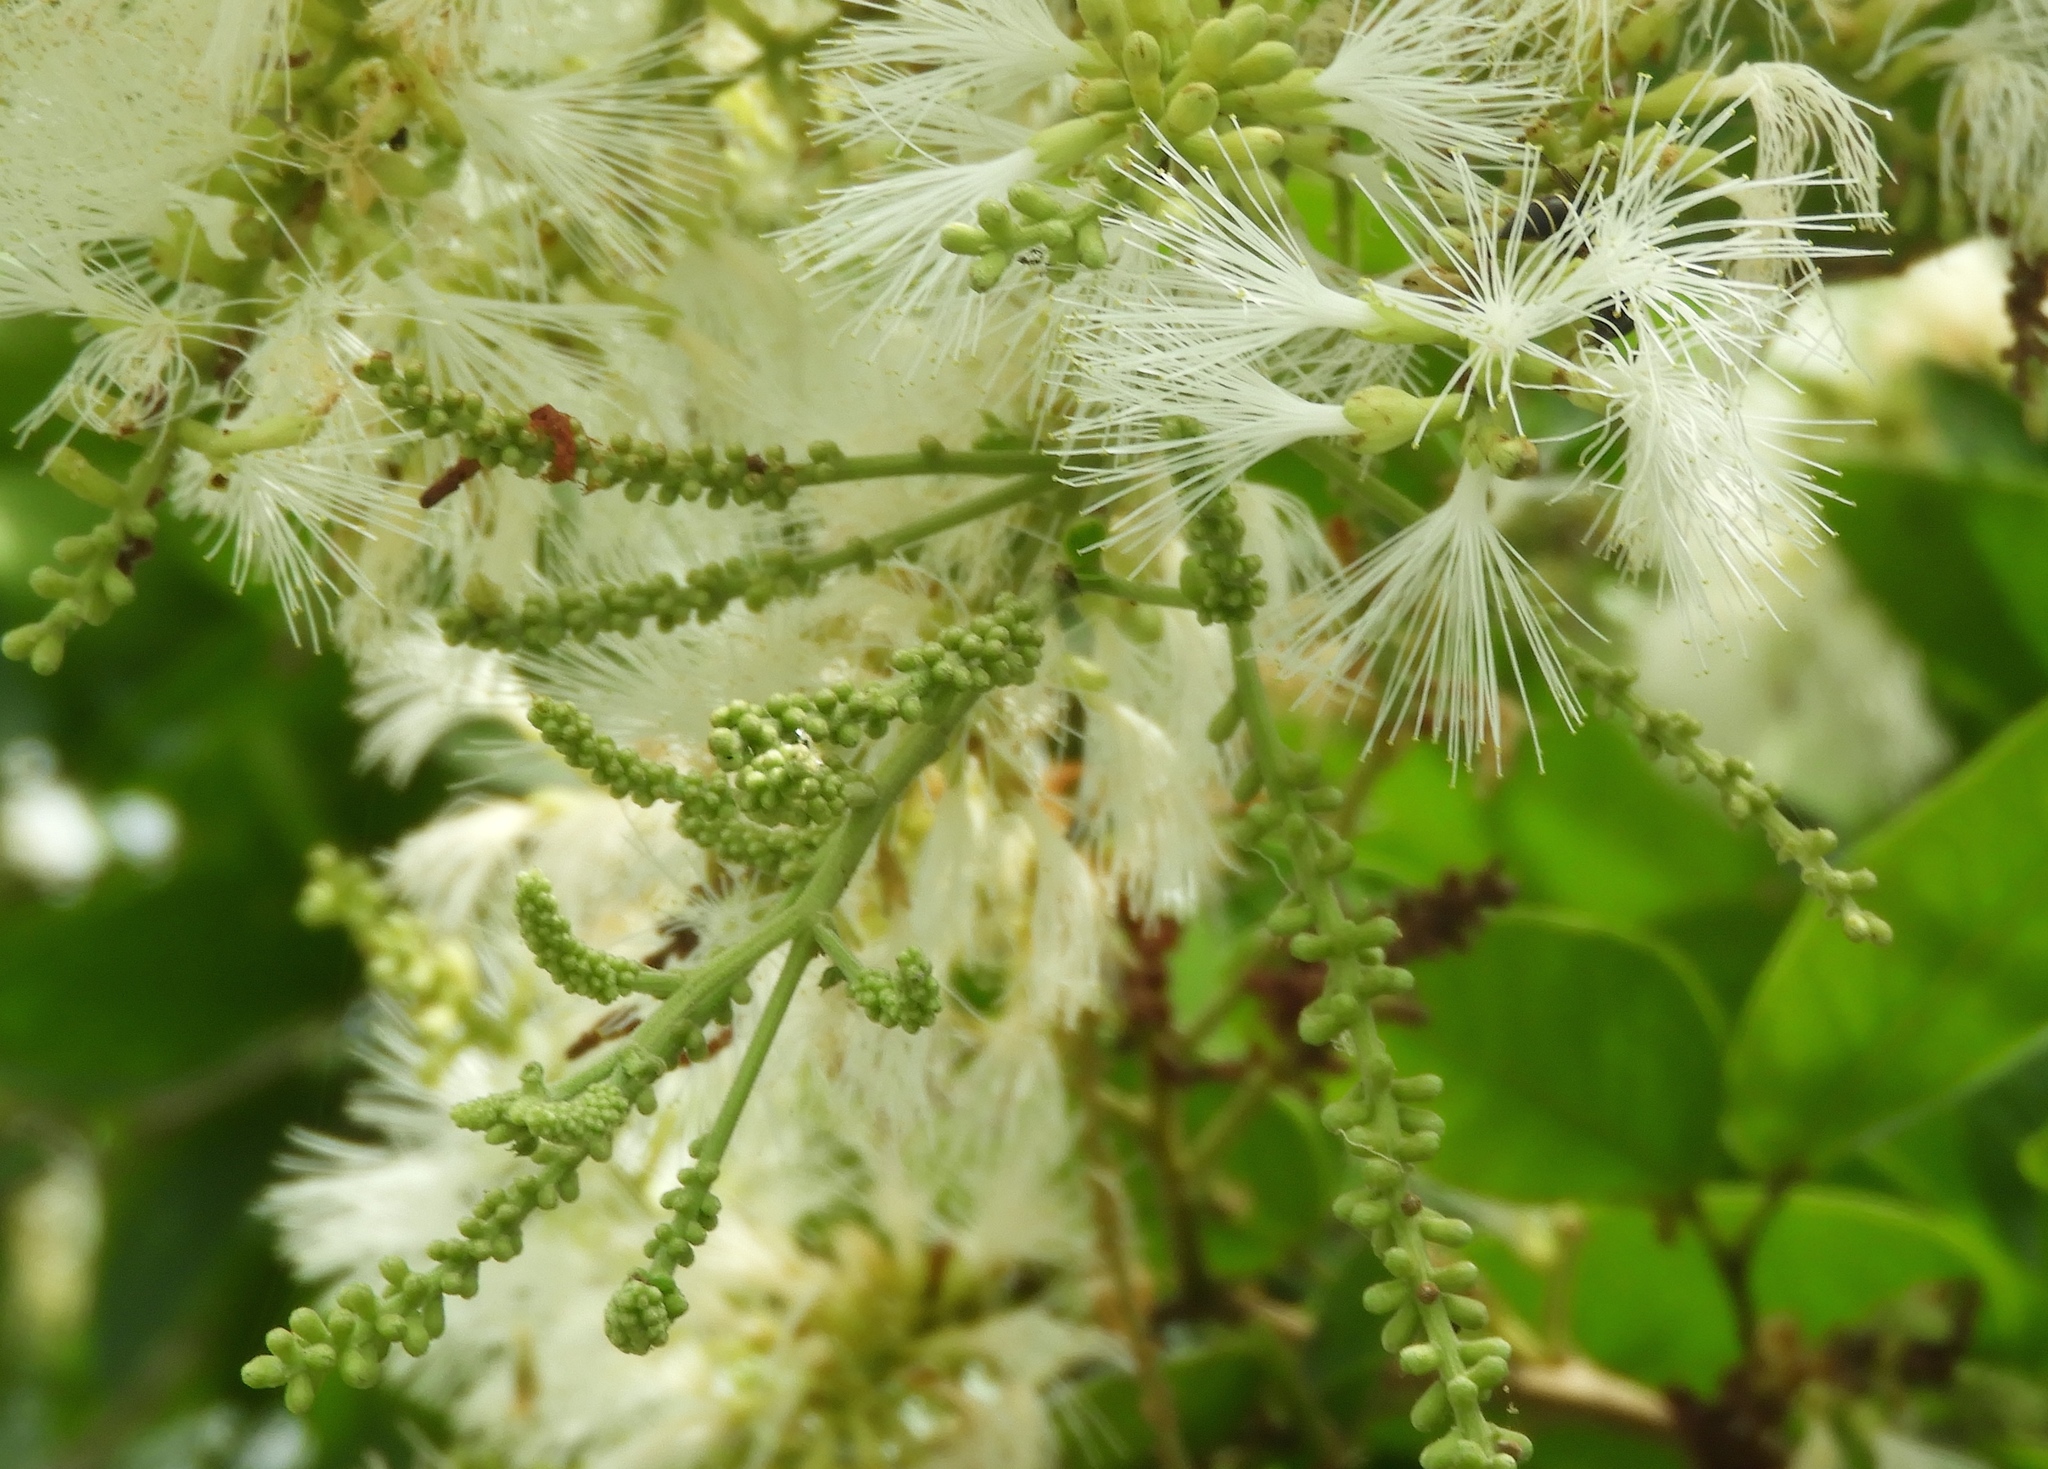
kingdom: Plantae
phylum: Tracheophyta
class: Magnoliopsida
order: Fabales
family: Fabaceae
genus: Pithecellobium
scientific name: Pithecellobium lanceolatum
